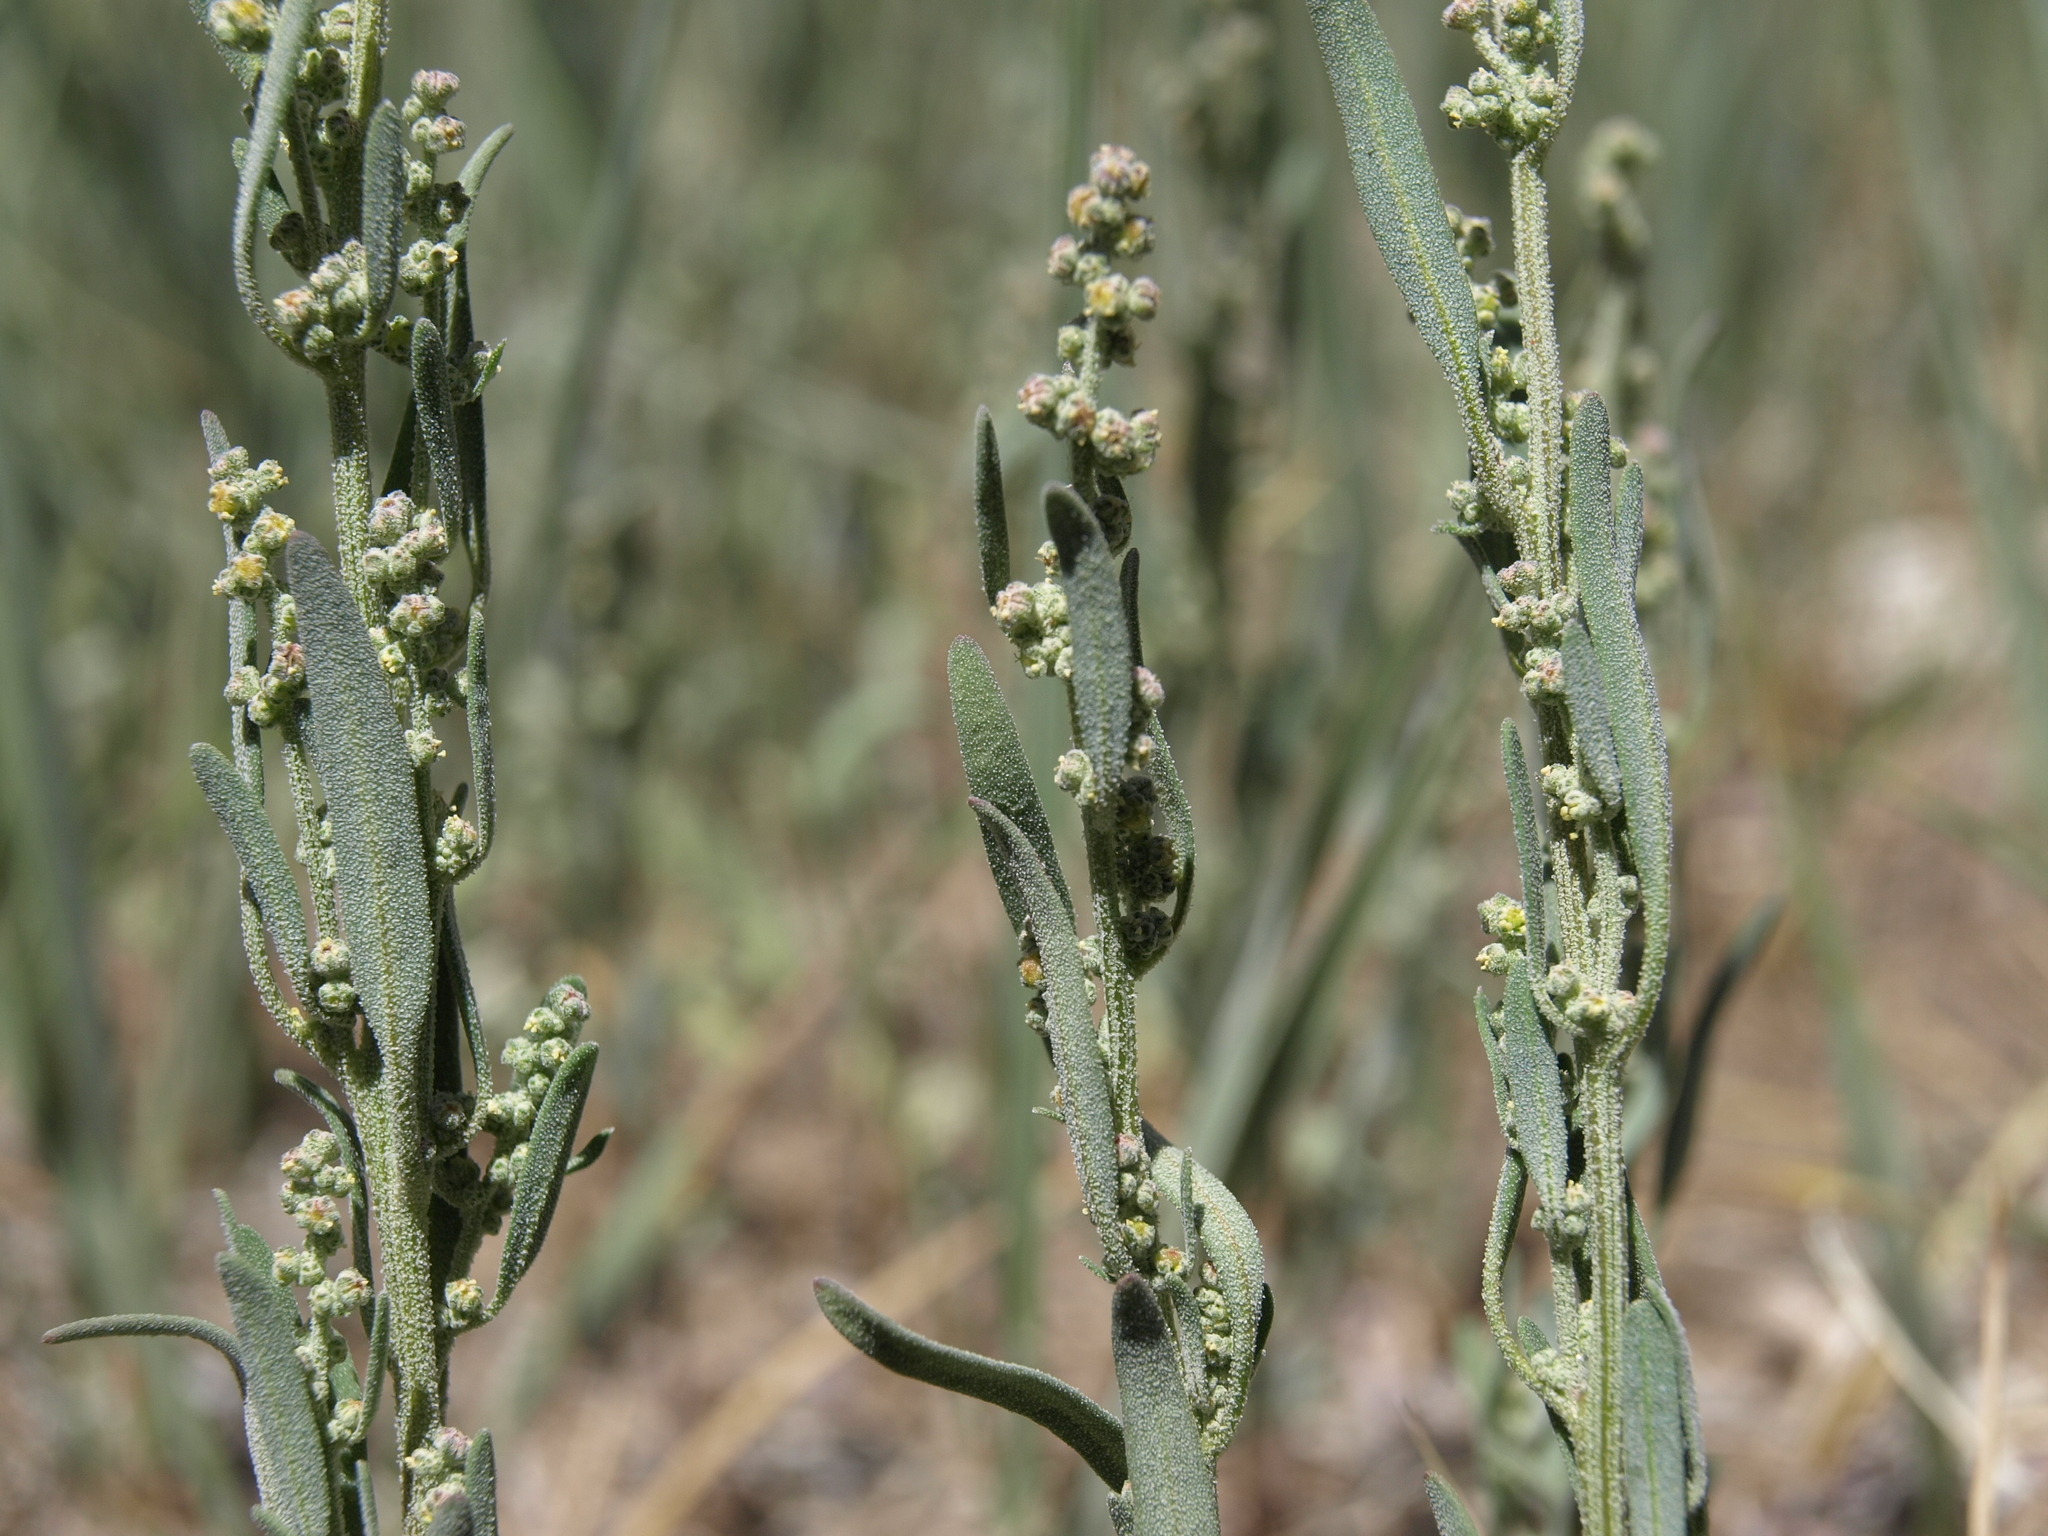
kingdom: Plantae
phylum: Tracheophyta
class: Magnoliopsida
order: Caryophyllales
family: Amaranthaceae
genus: Chenopodium
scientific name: Chenopodium leptophyllum
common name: Narrow-leaf goosefoot
